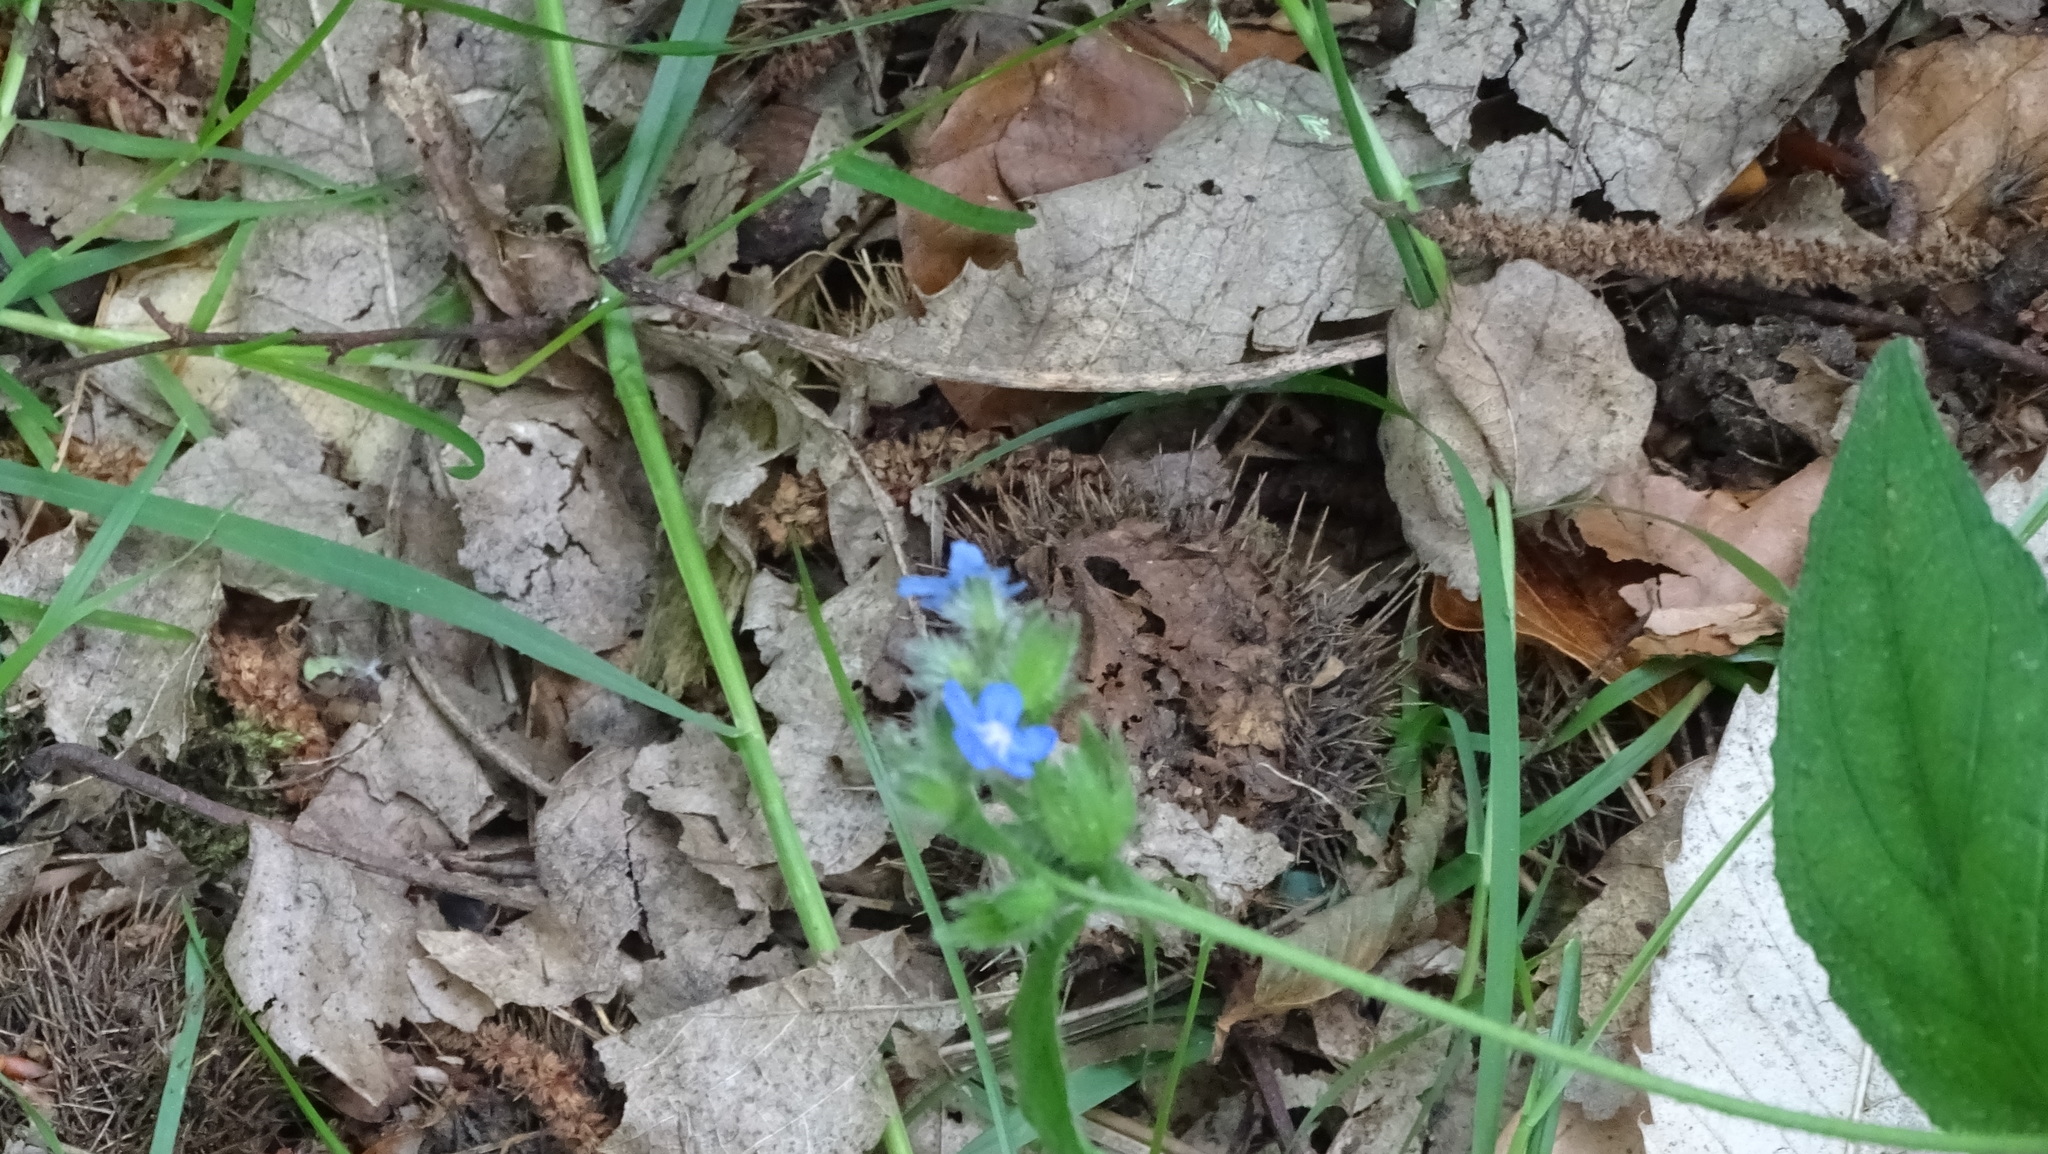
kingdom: Plantae
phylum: Tracheophyta
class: Magnoliopsida
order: Boraginales
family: Boraginaceae
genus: Pentaglottis
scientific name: Pentaglottis sempervirens
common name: Green alkanet
